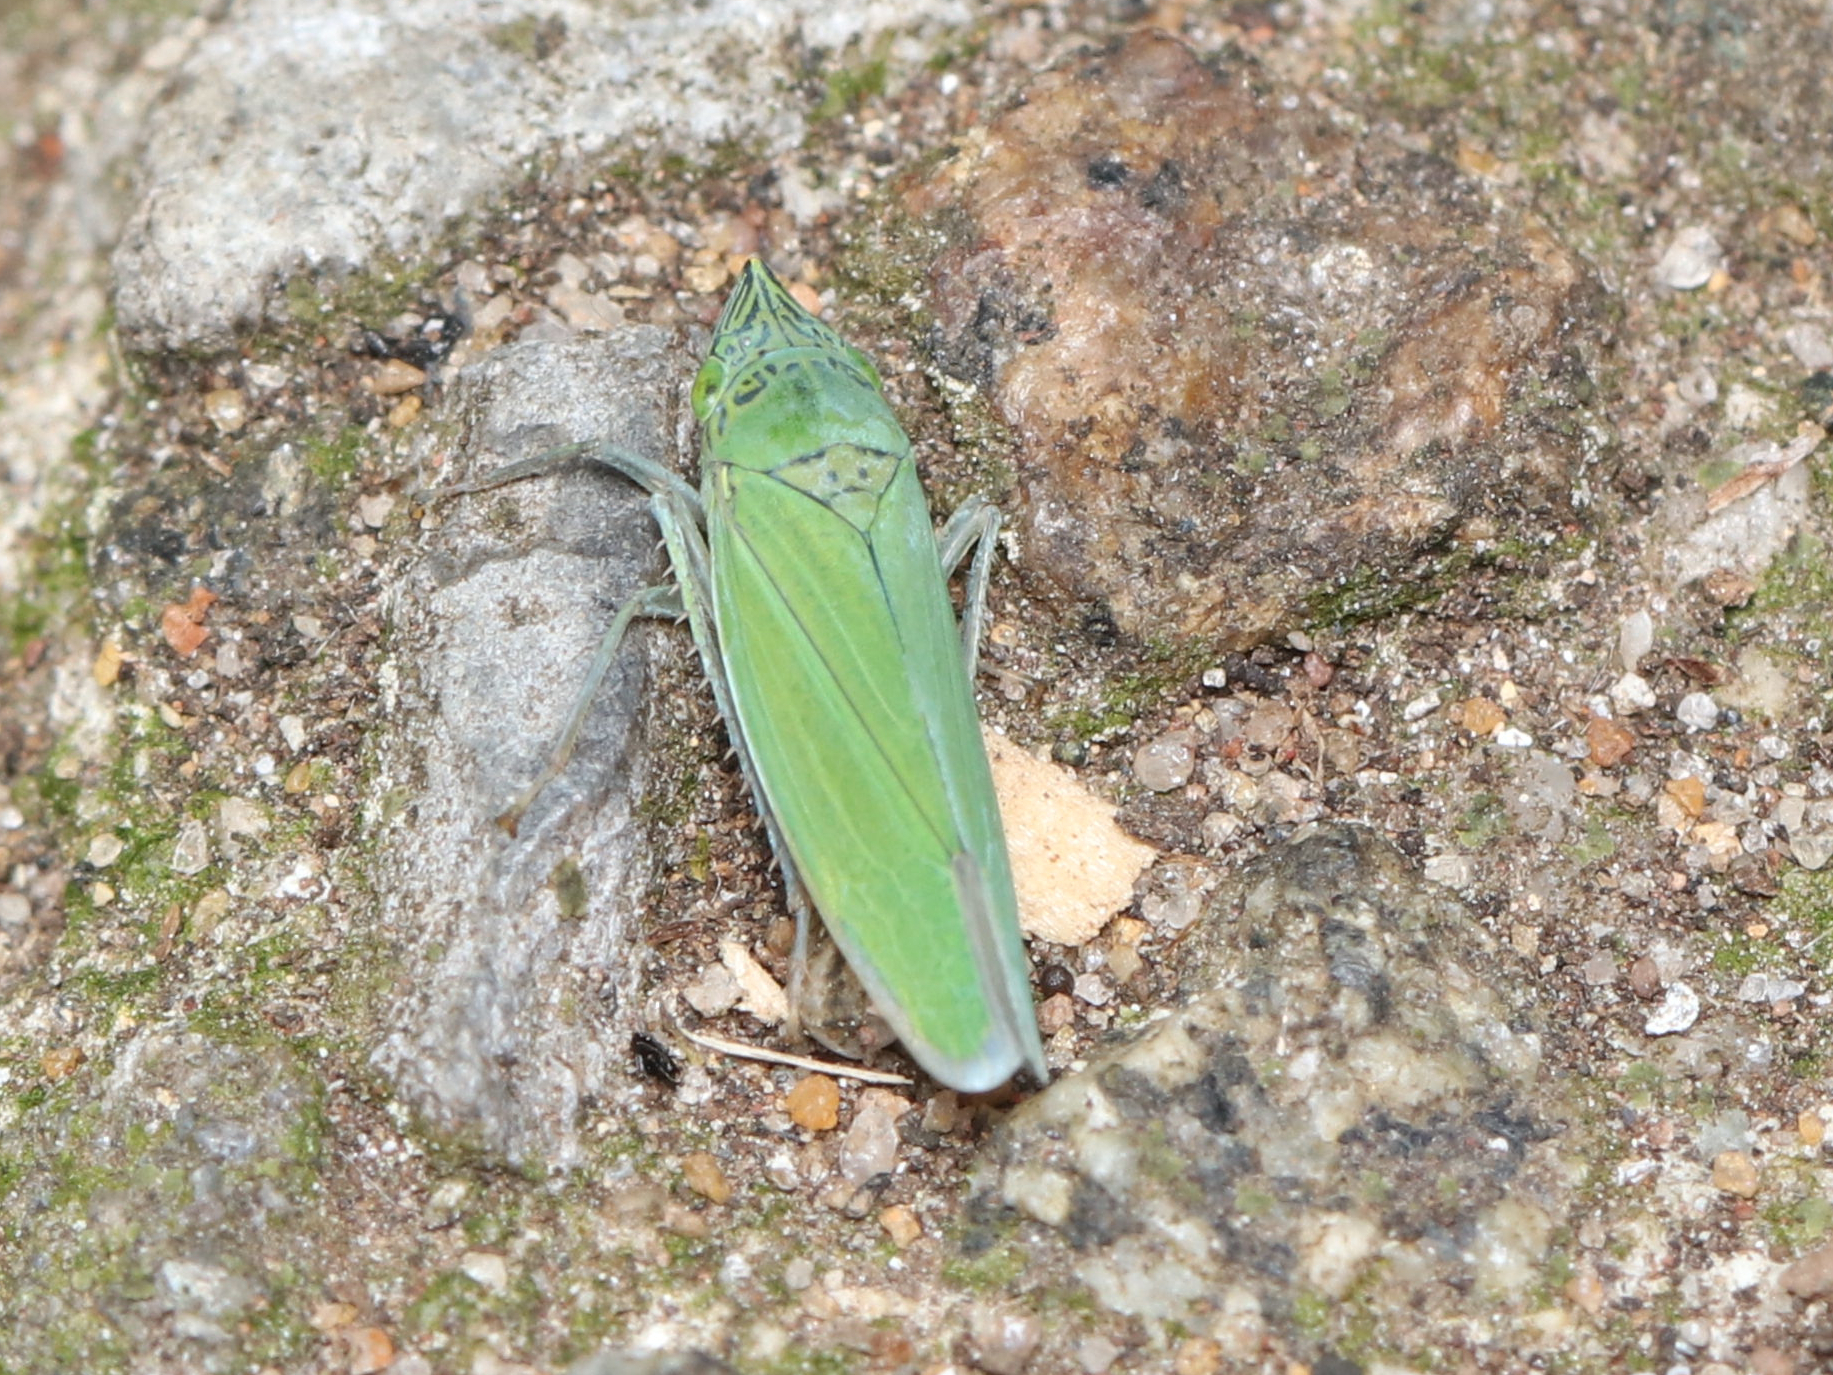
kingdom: Animalia
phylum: Arthropoda
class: Insecta
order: Hemiptera
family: Cicadellidae
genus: Draeculacephala
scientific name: Draeculacephala inscripta
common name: Leafhopper
